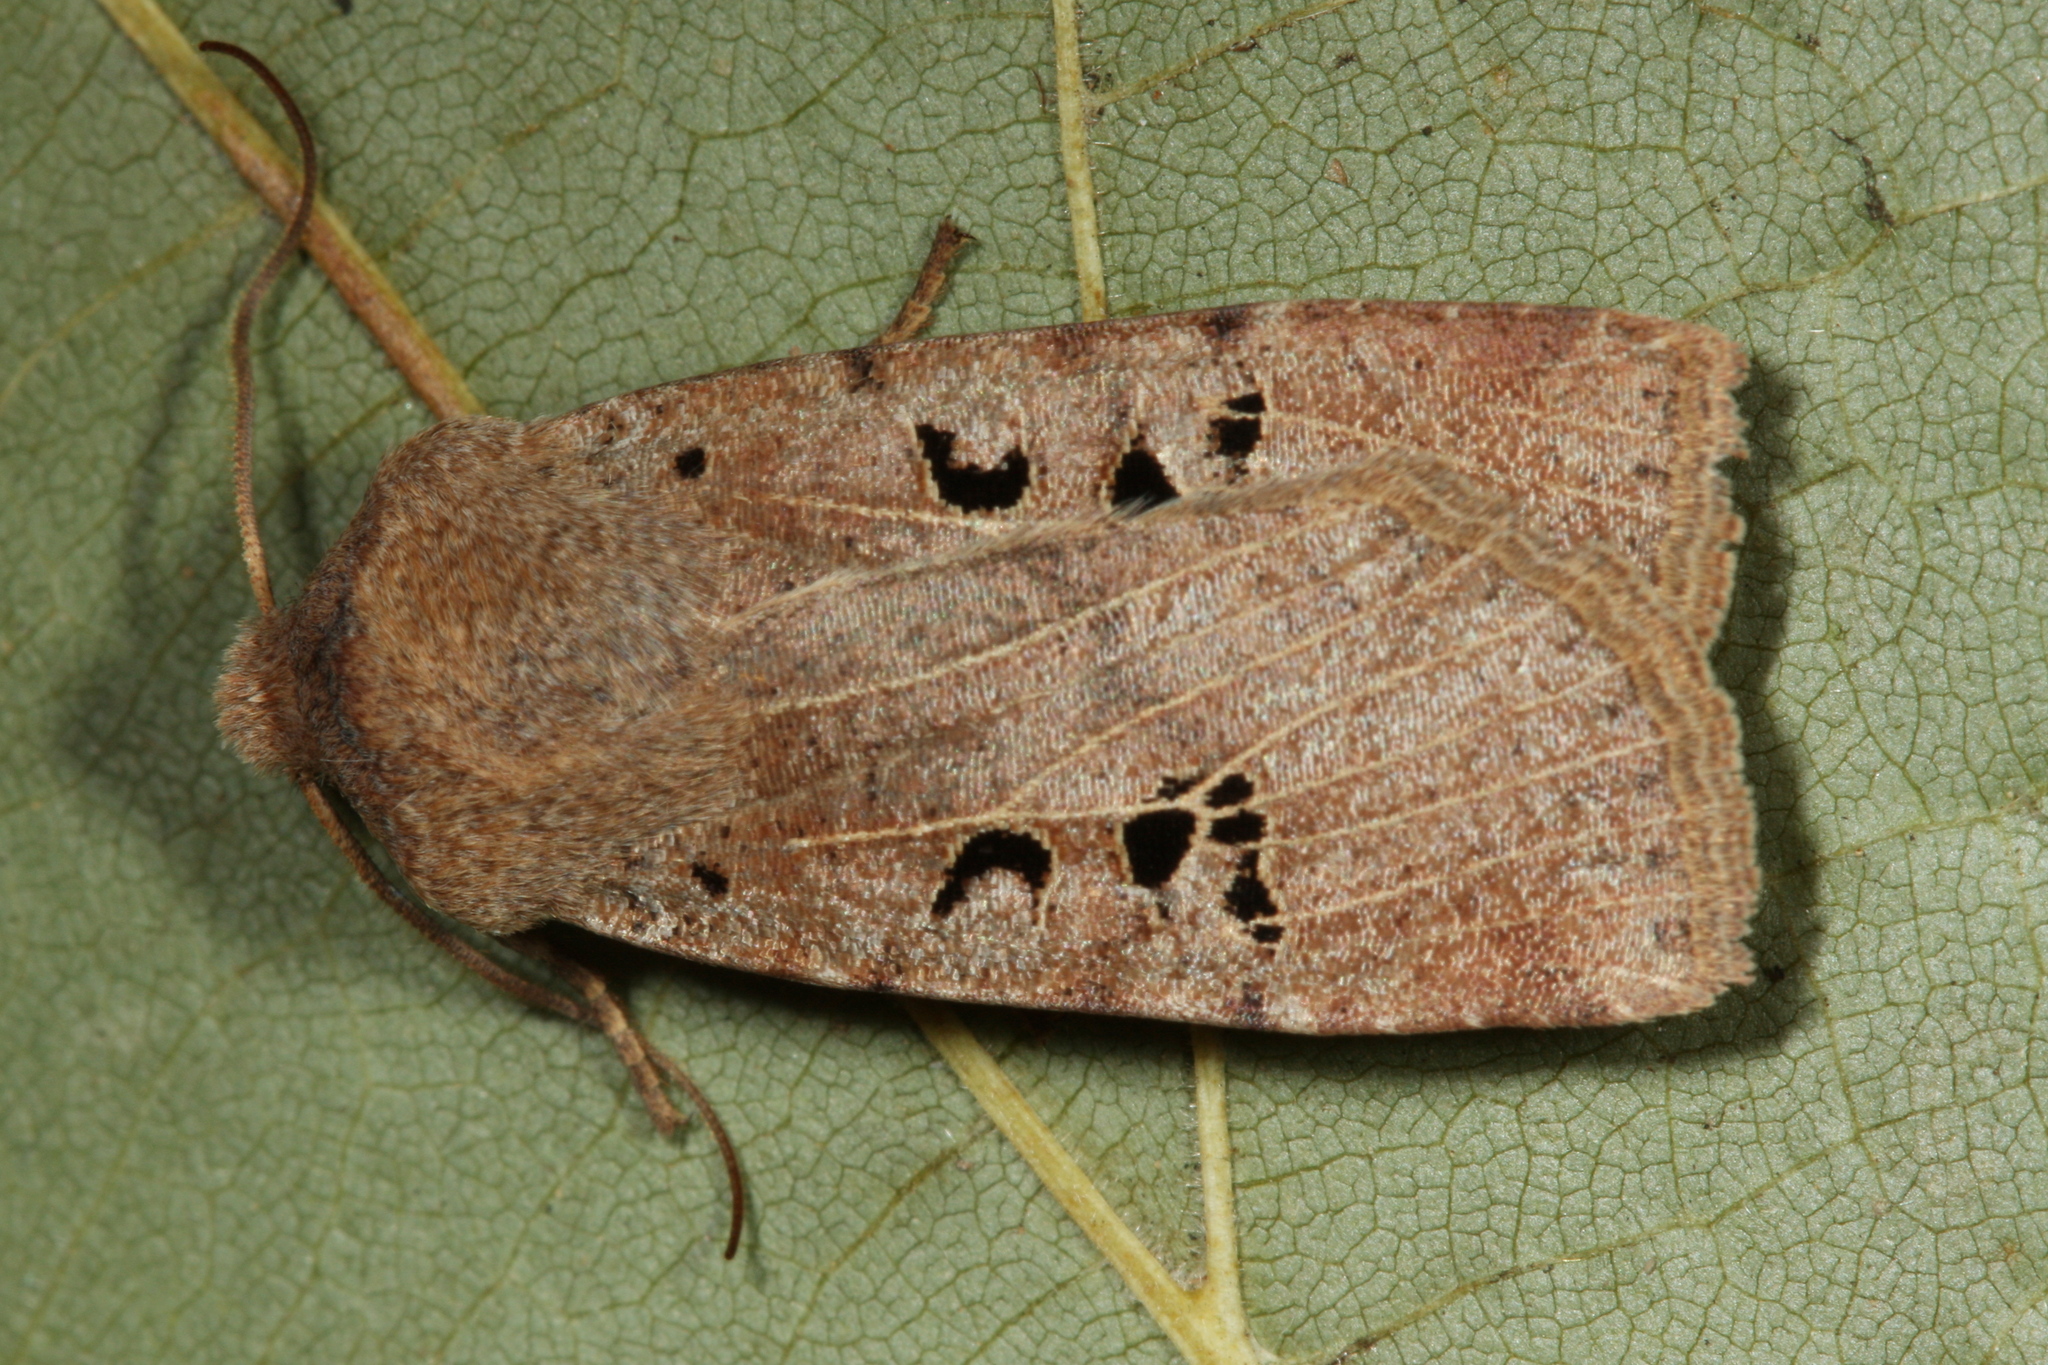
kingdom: Animalia
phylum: Arthropoda
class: Insecta
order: Lepidoptera
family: Noctuidae
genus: Conistra
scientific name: Conistra rubiginosa
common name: Black-spotted chestnut
